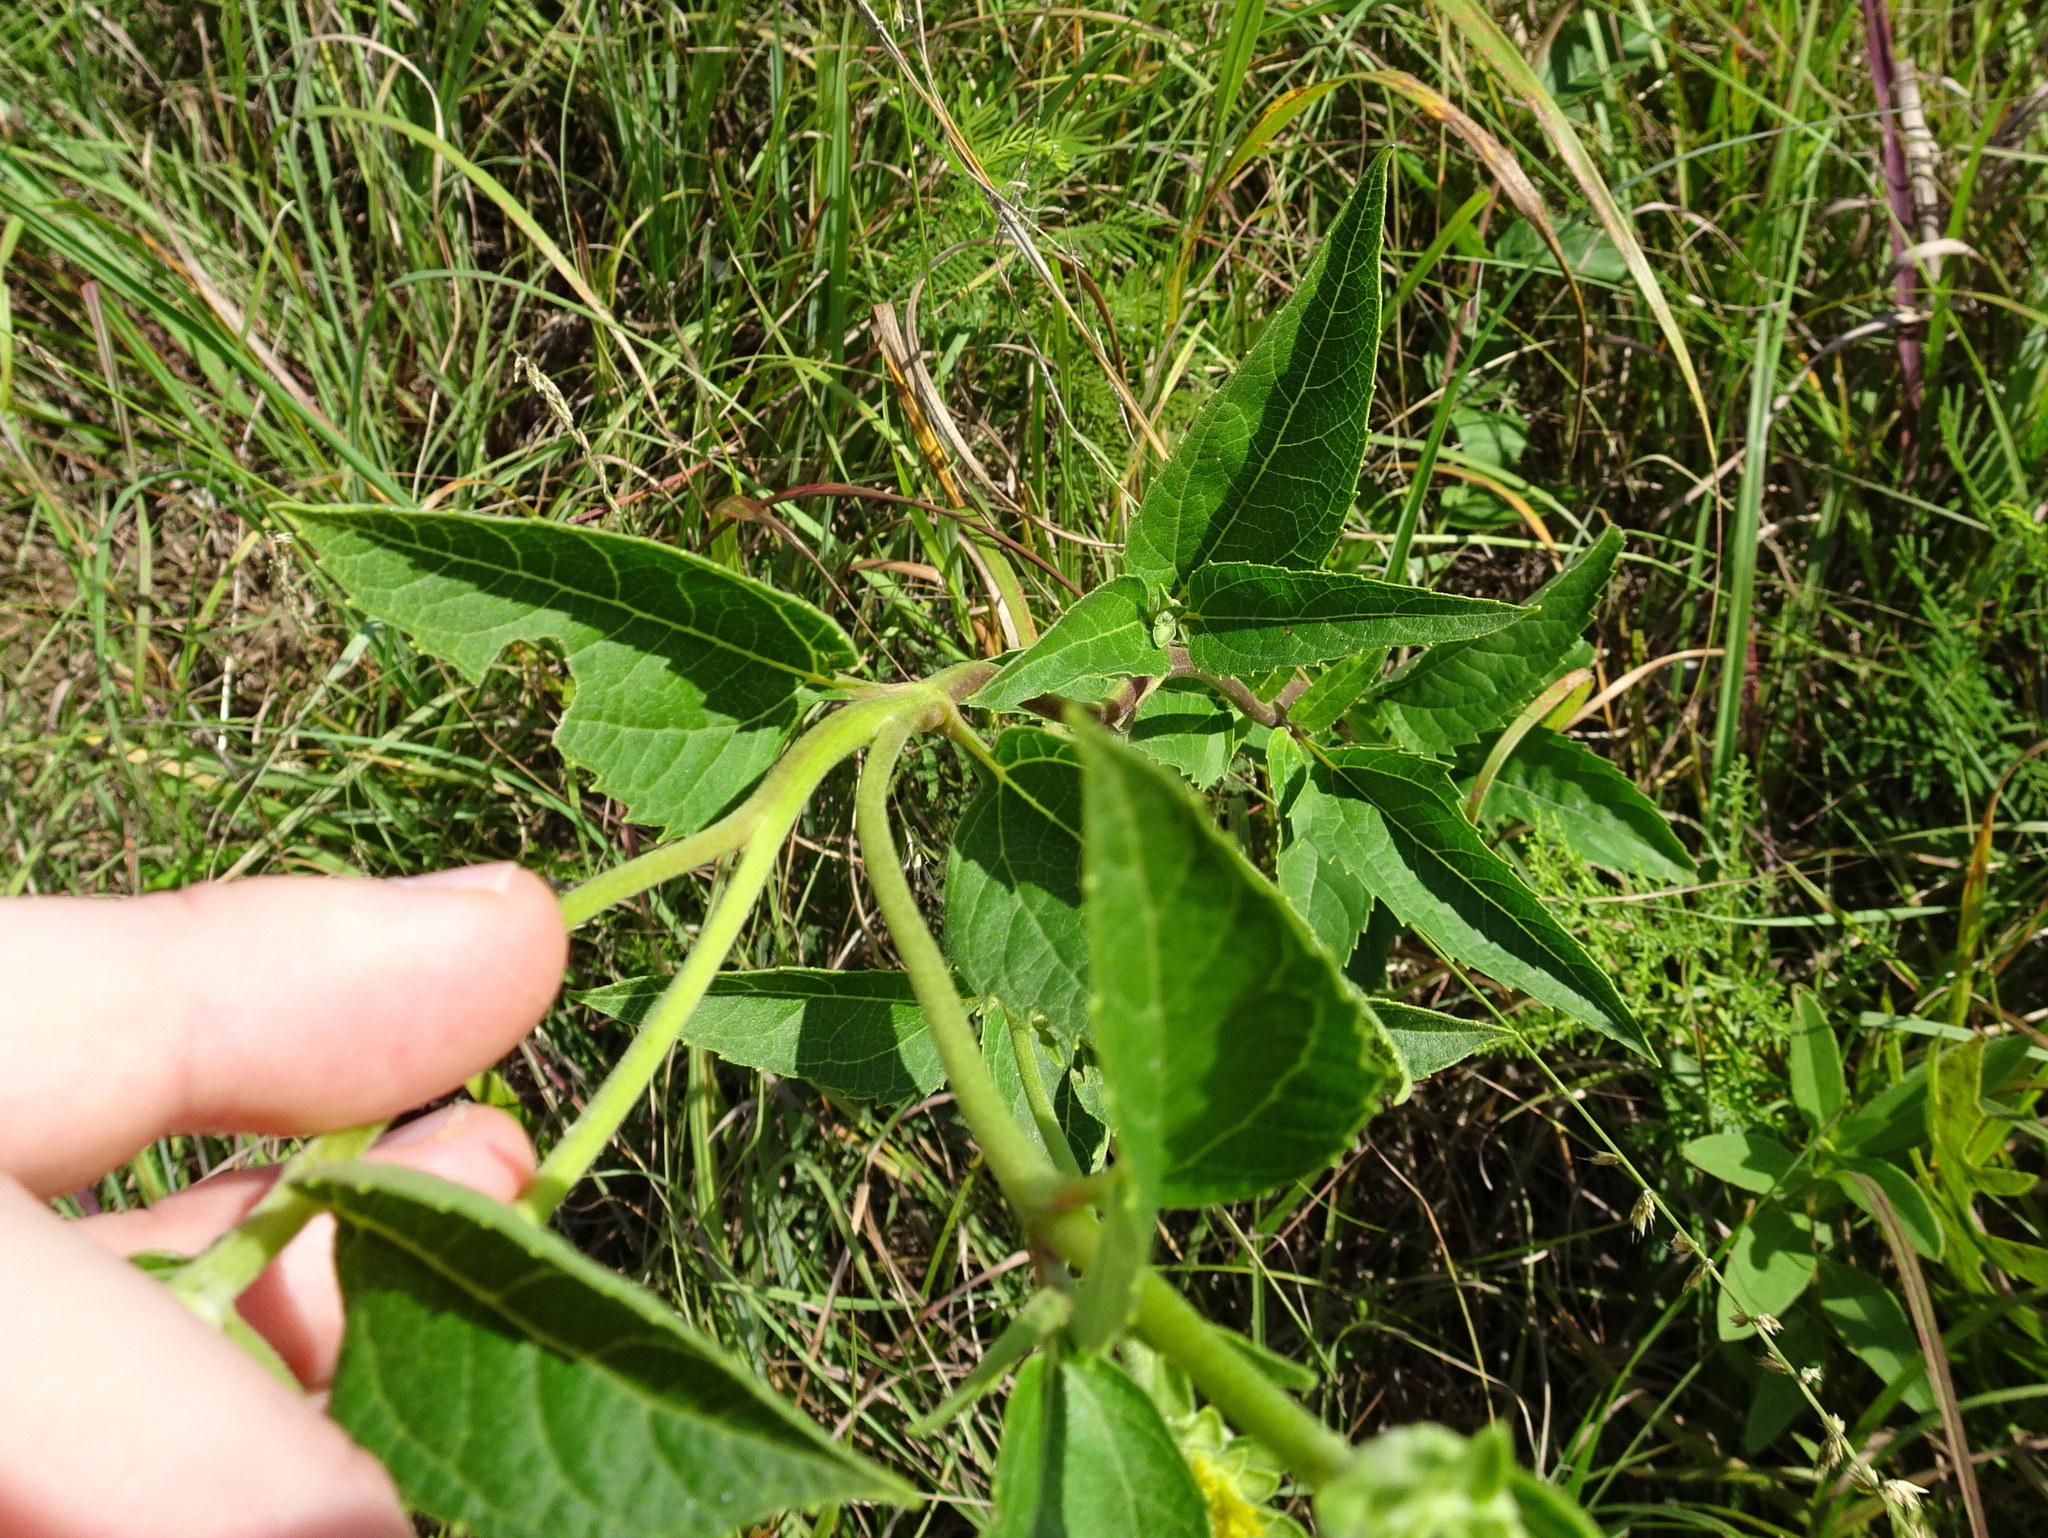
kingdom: Plantae
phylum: Tracheophyta
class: Magnoliopsida
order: Asterales
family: Asteraceae
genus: Heliopsis
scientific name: Heliopsis helianthoides
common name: False sunflower
